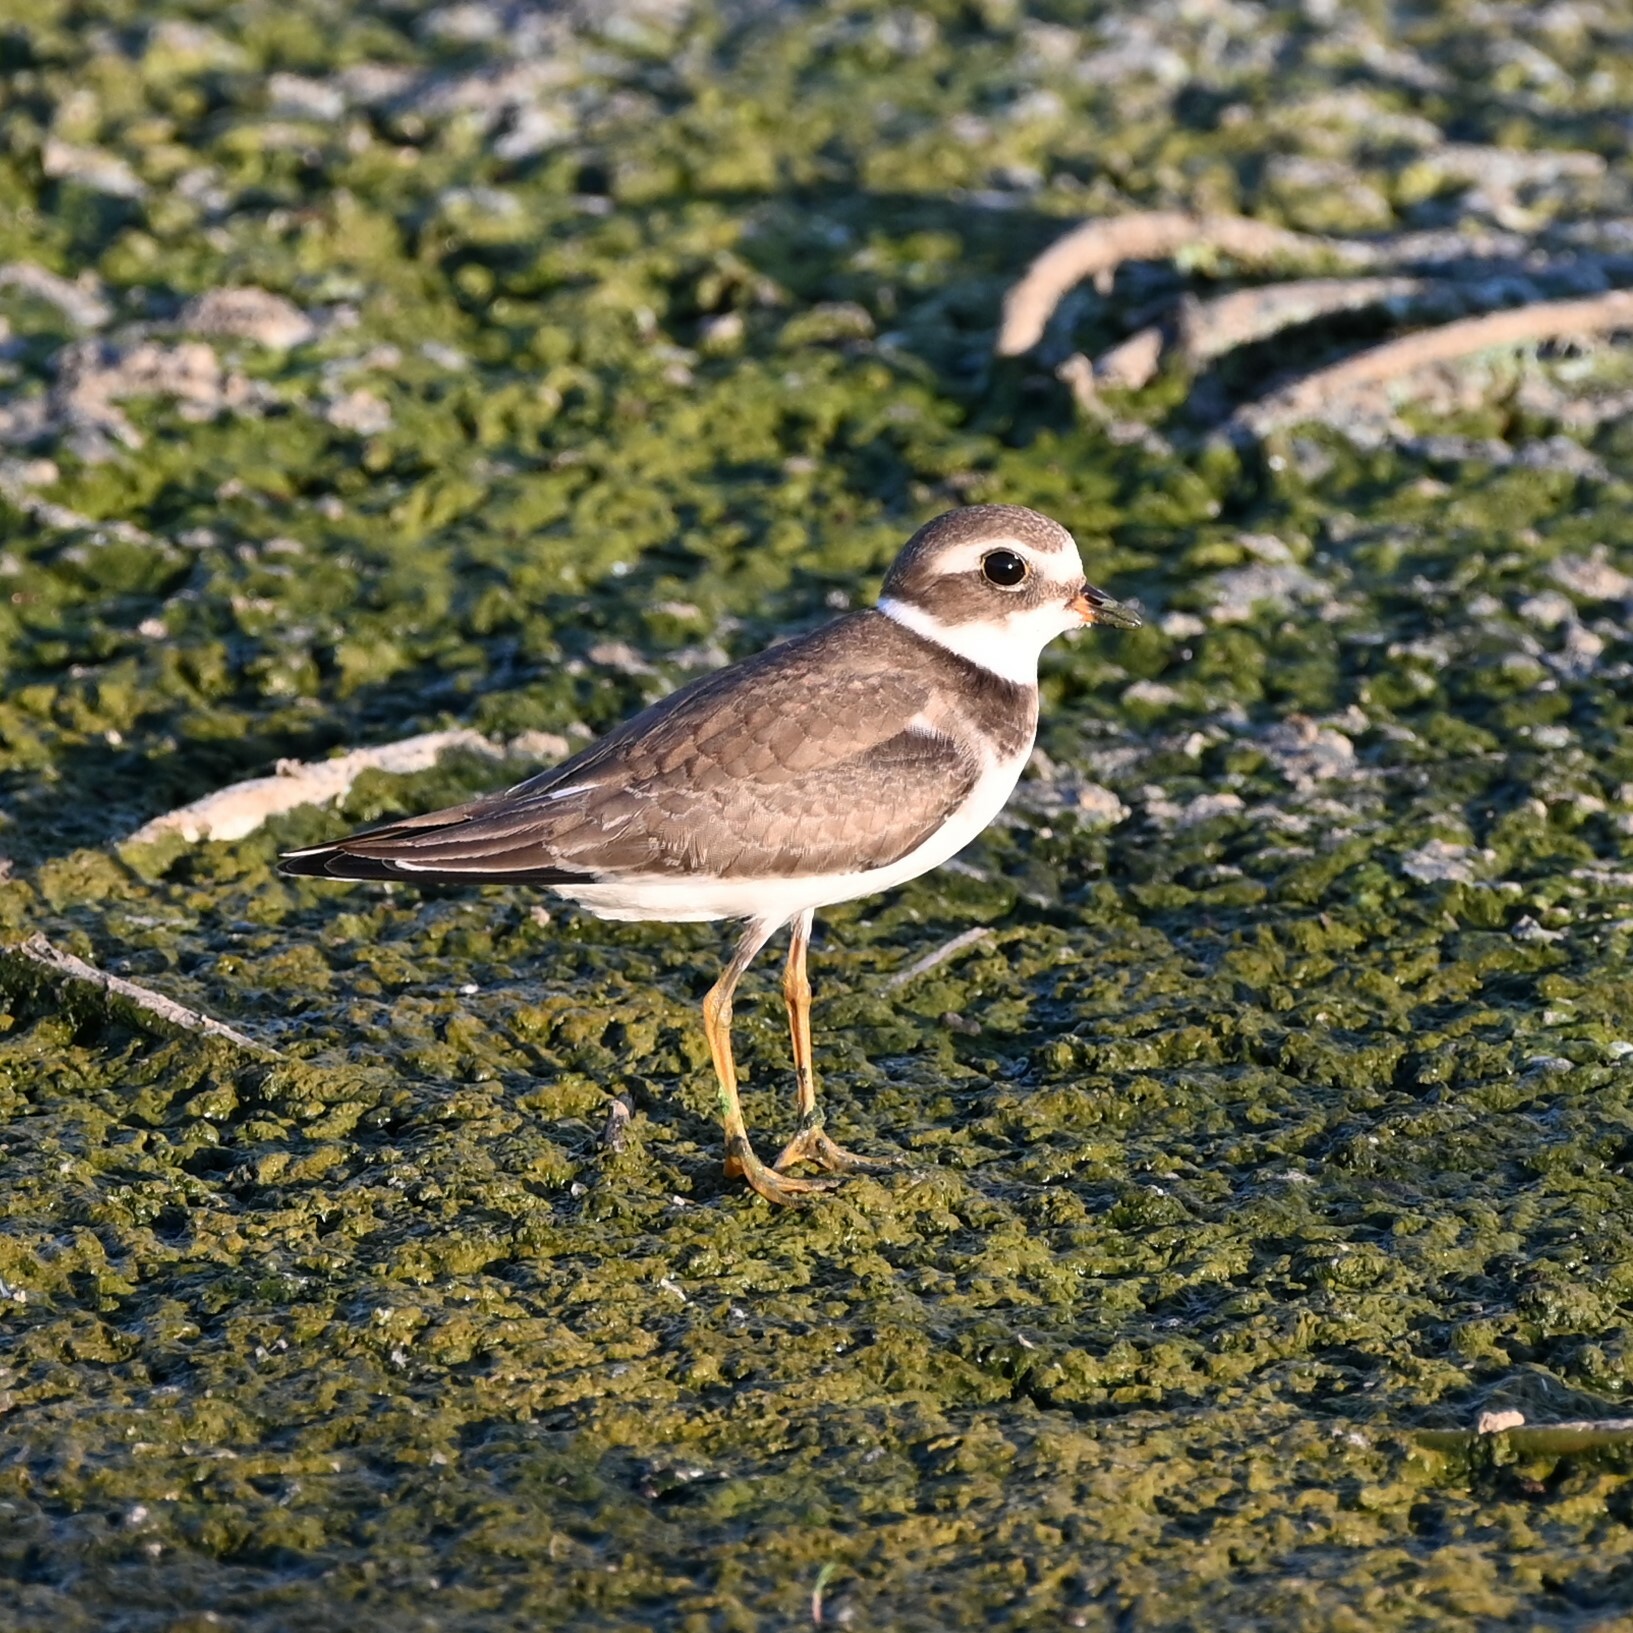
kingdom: Animalia
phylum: Chordata
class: Aves
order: Charadriiformes
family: Charadriidae
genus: Charadrius
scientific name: Charadrius semipalmatus
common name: Semipalmated plover
